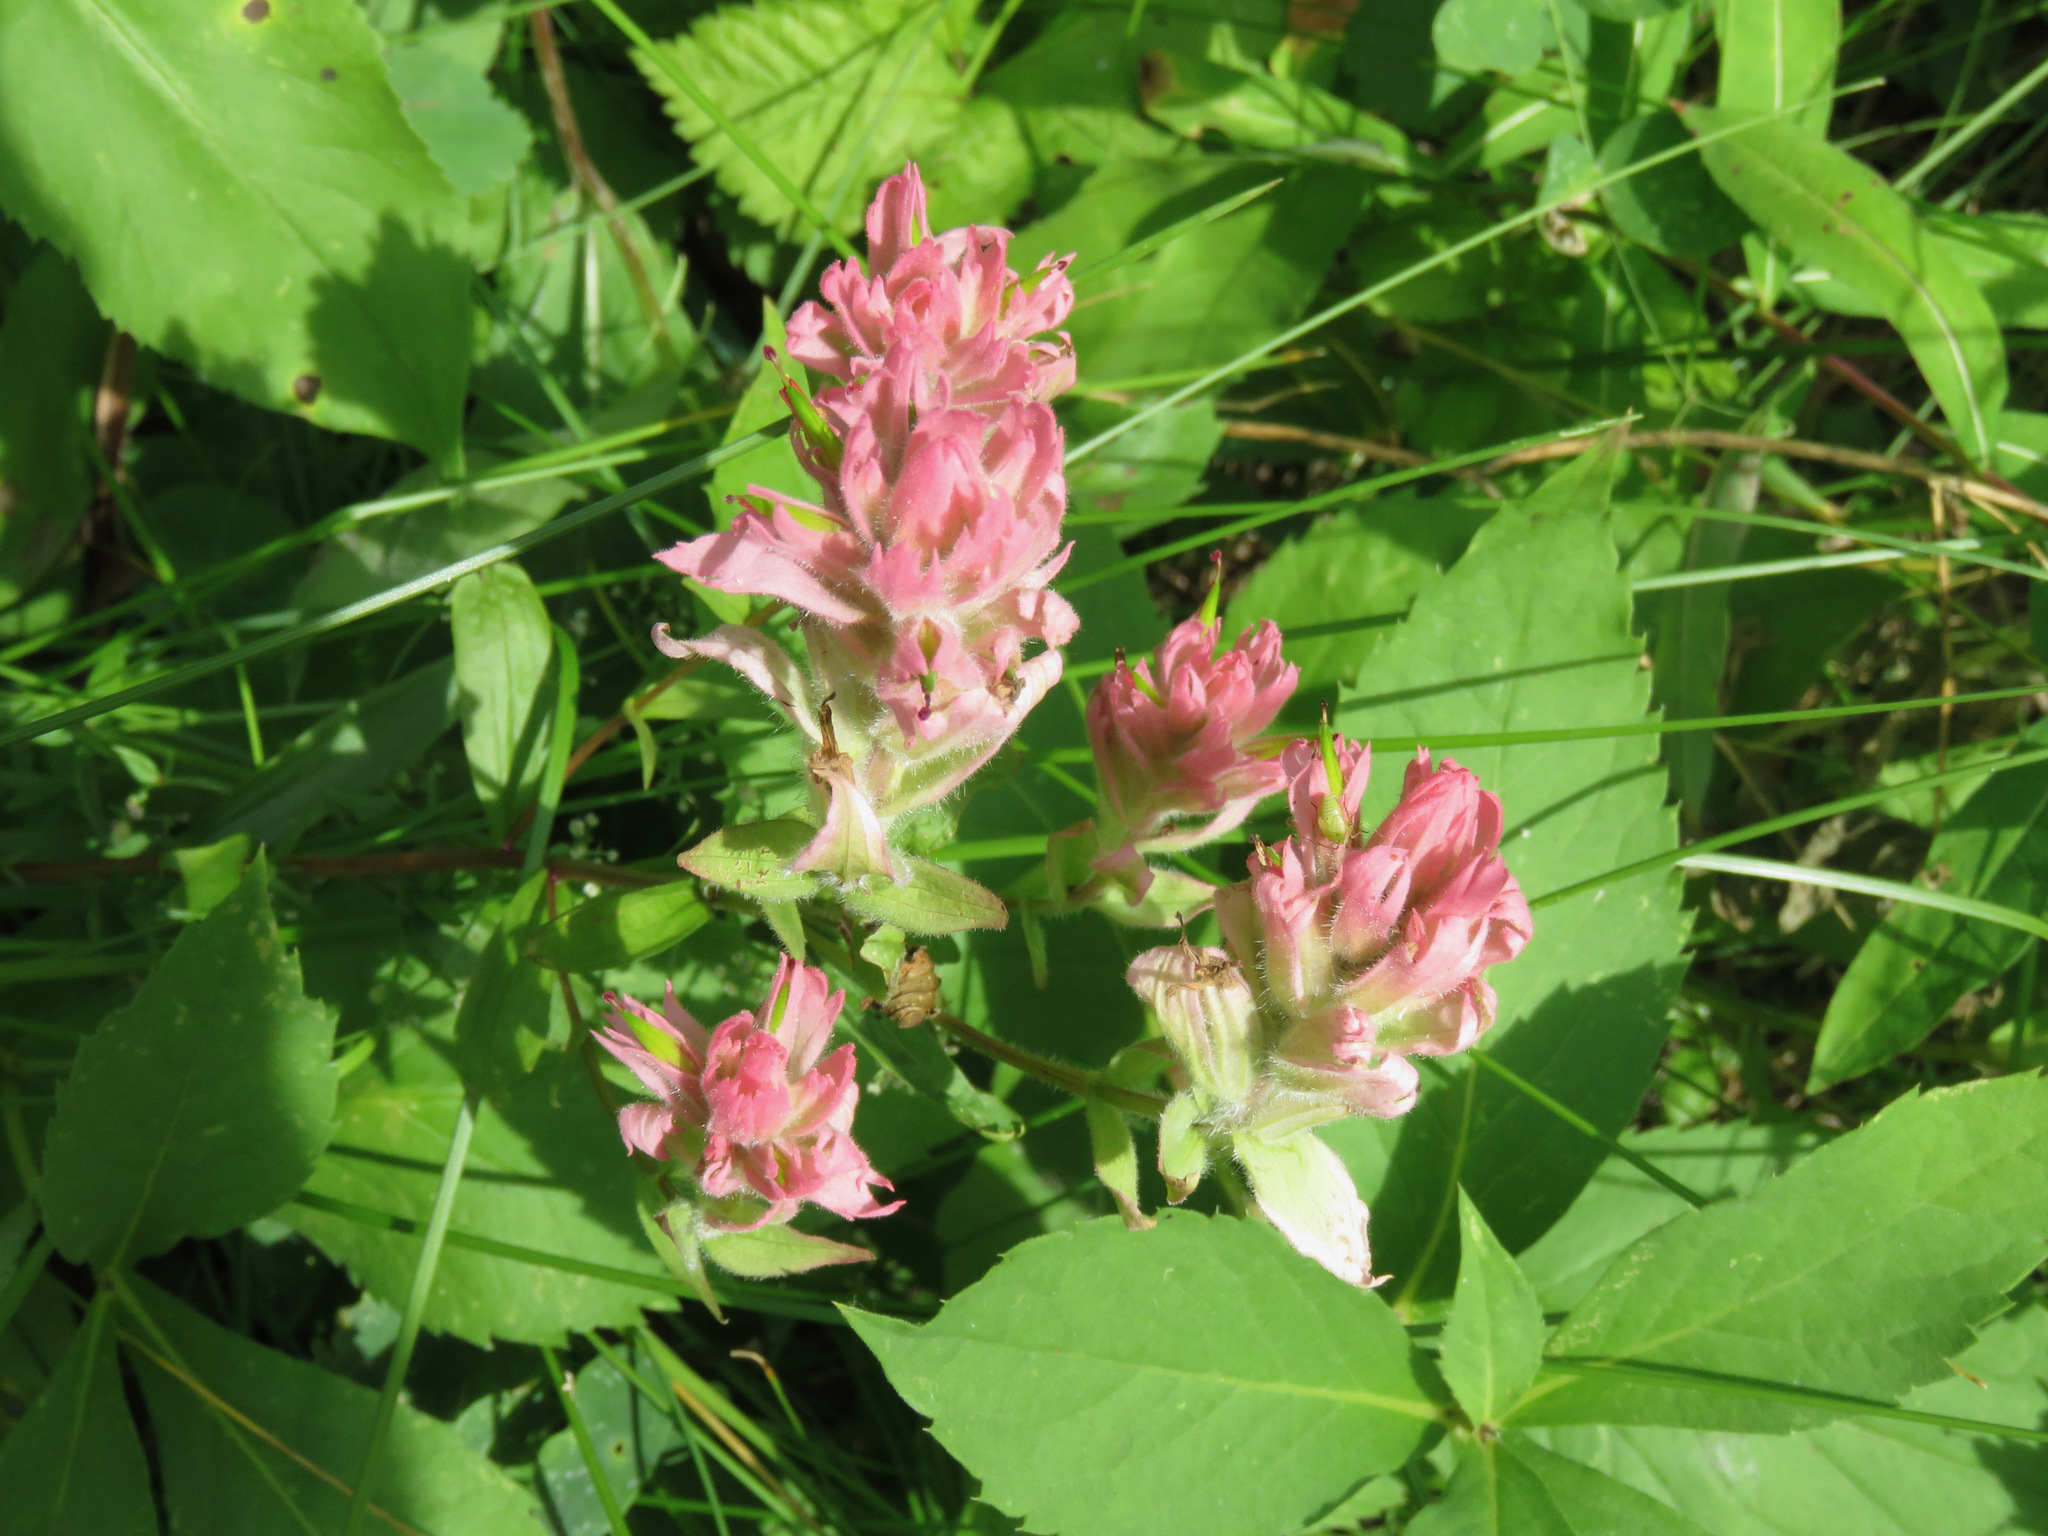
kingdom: Plantae
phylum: Tracheophyta
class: Magnoliopsida
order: Lamiales
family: Orobanchaceae
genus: Castilleja
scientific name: Castilleja miniata
